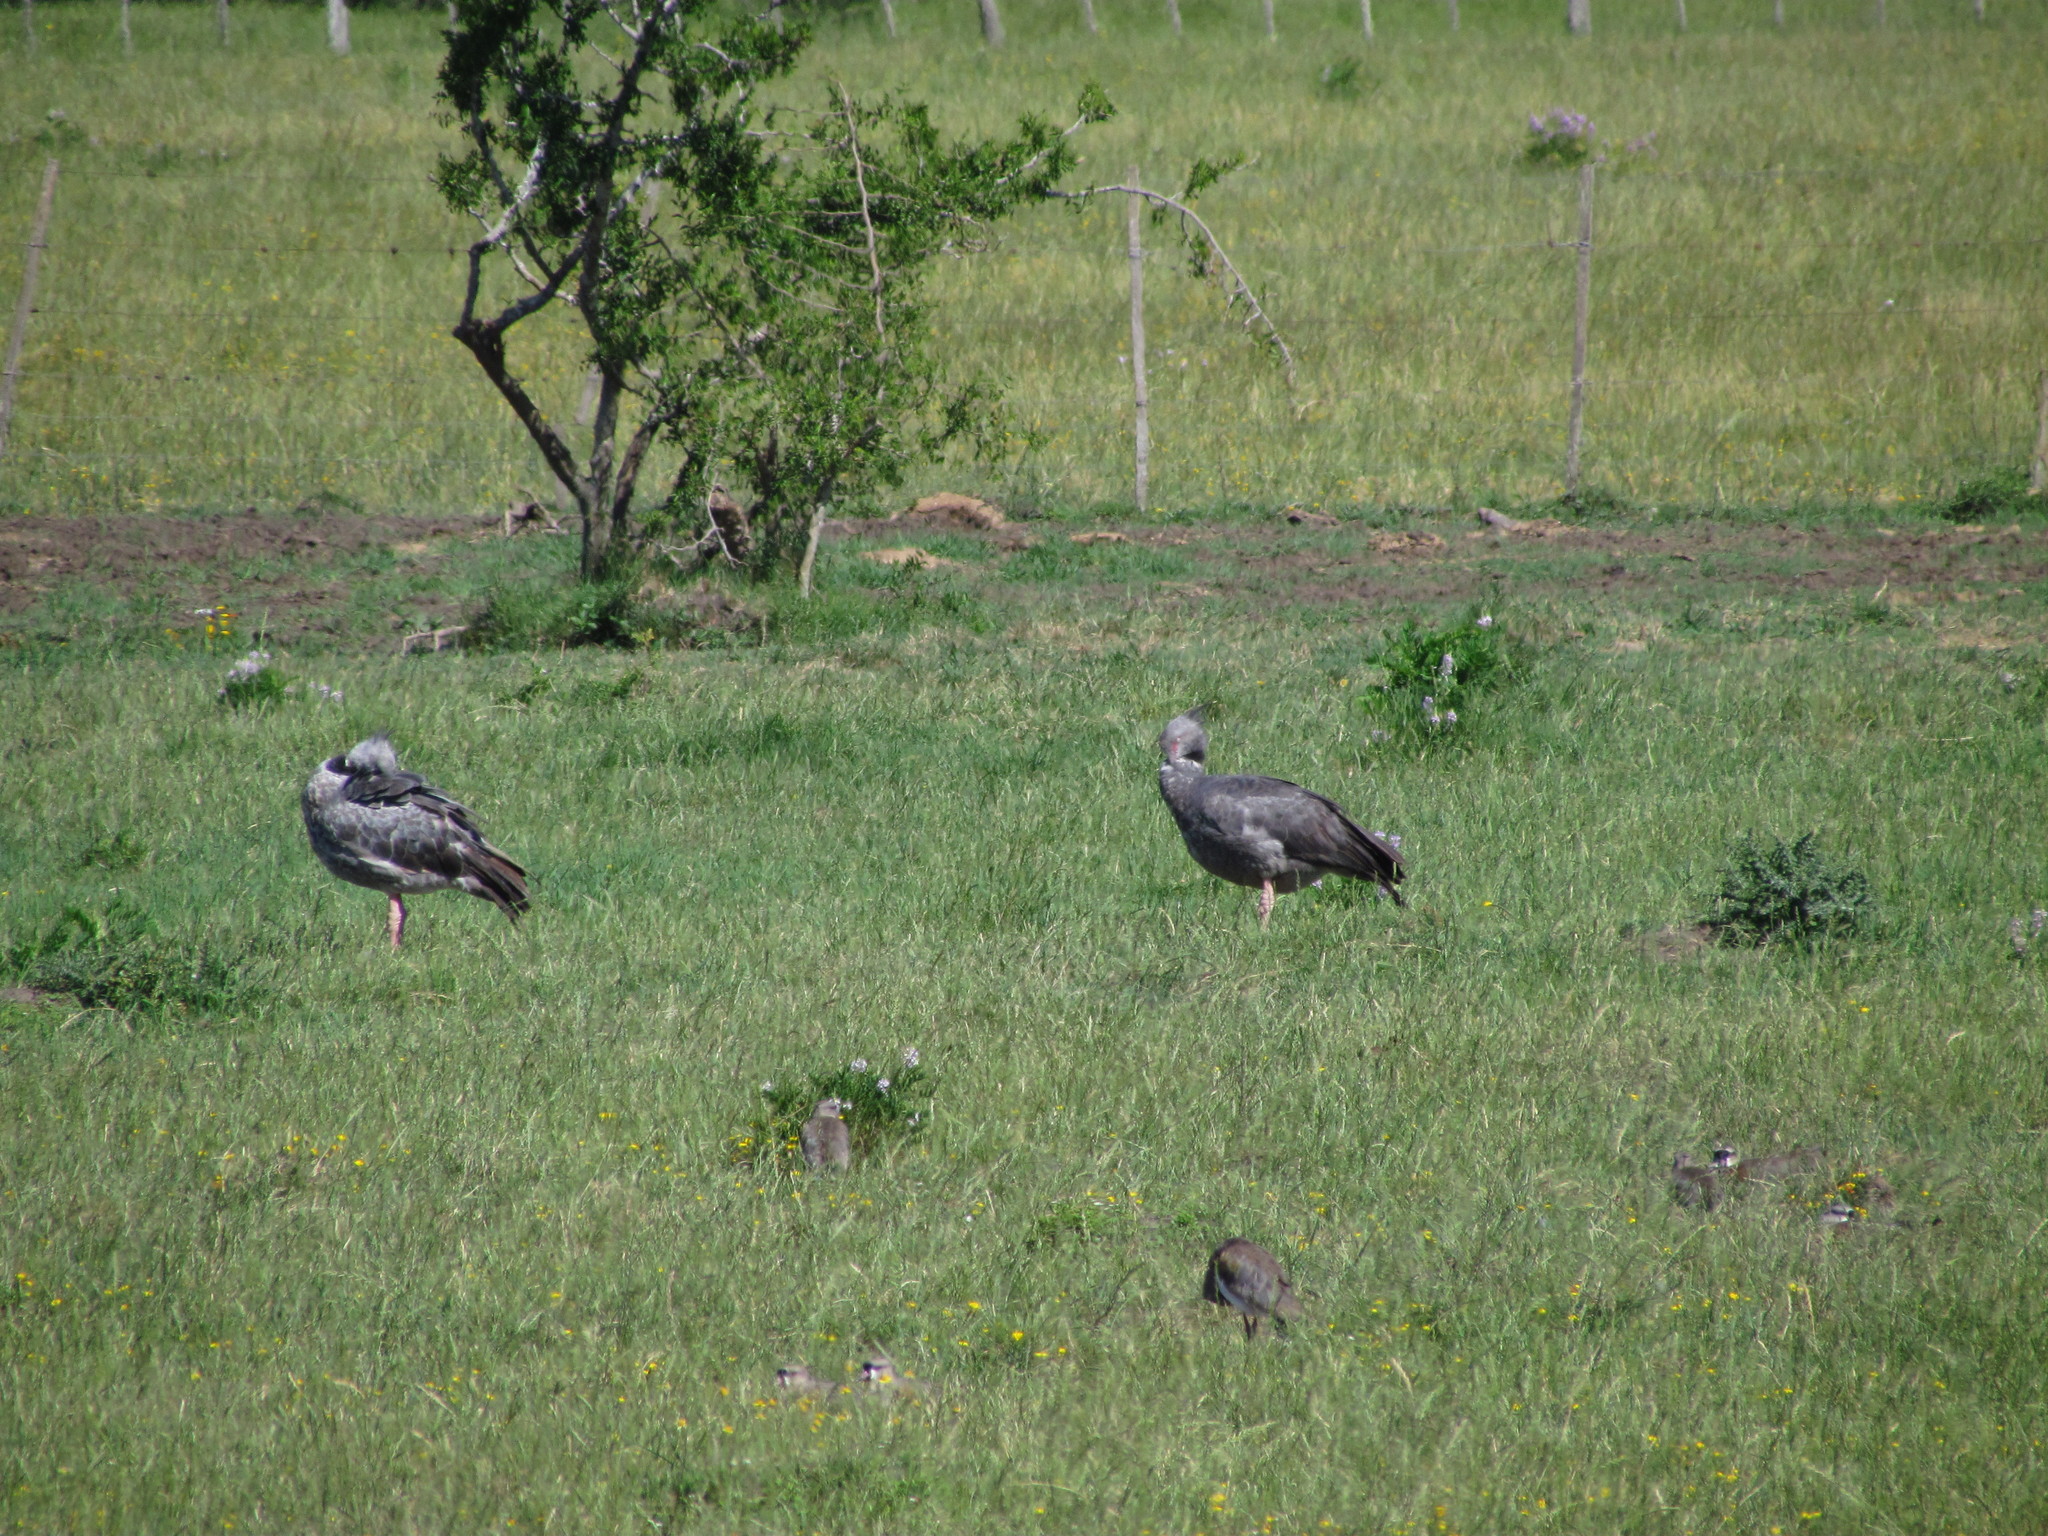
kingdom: Animalia
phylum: Chordata
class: Aves
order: Anseriformes
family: Anhimidae
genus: Chauna
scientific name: Chauna torquata
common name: Southern screamer
